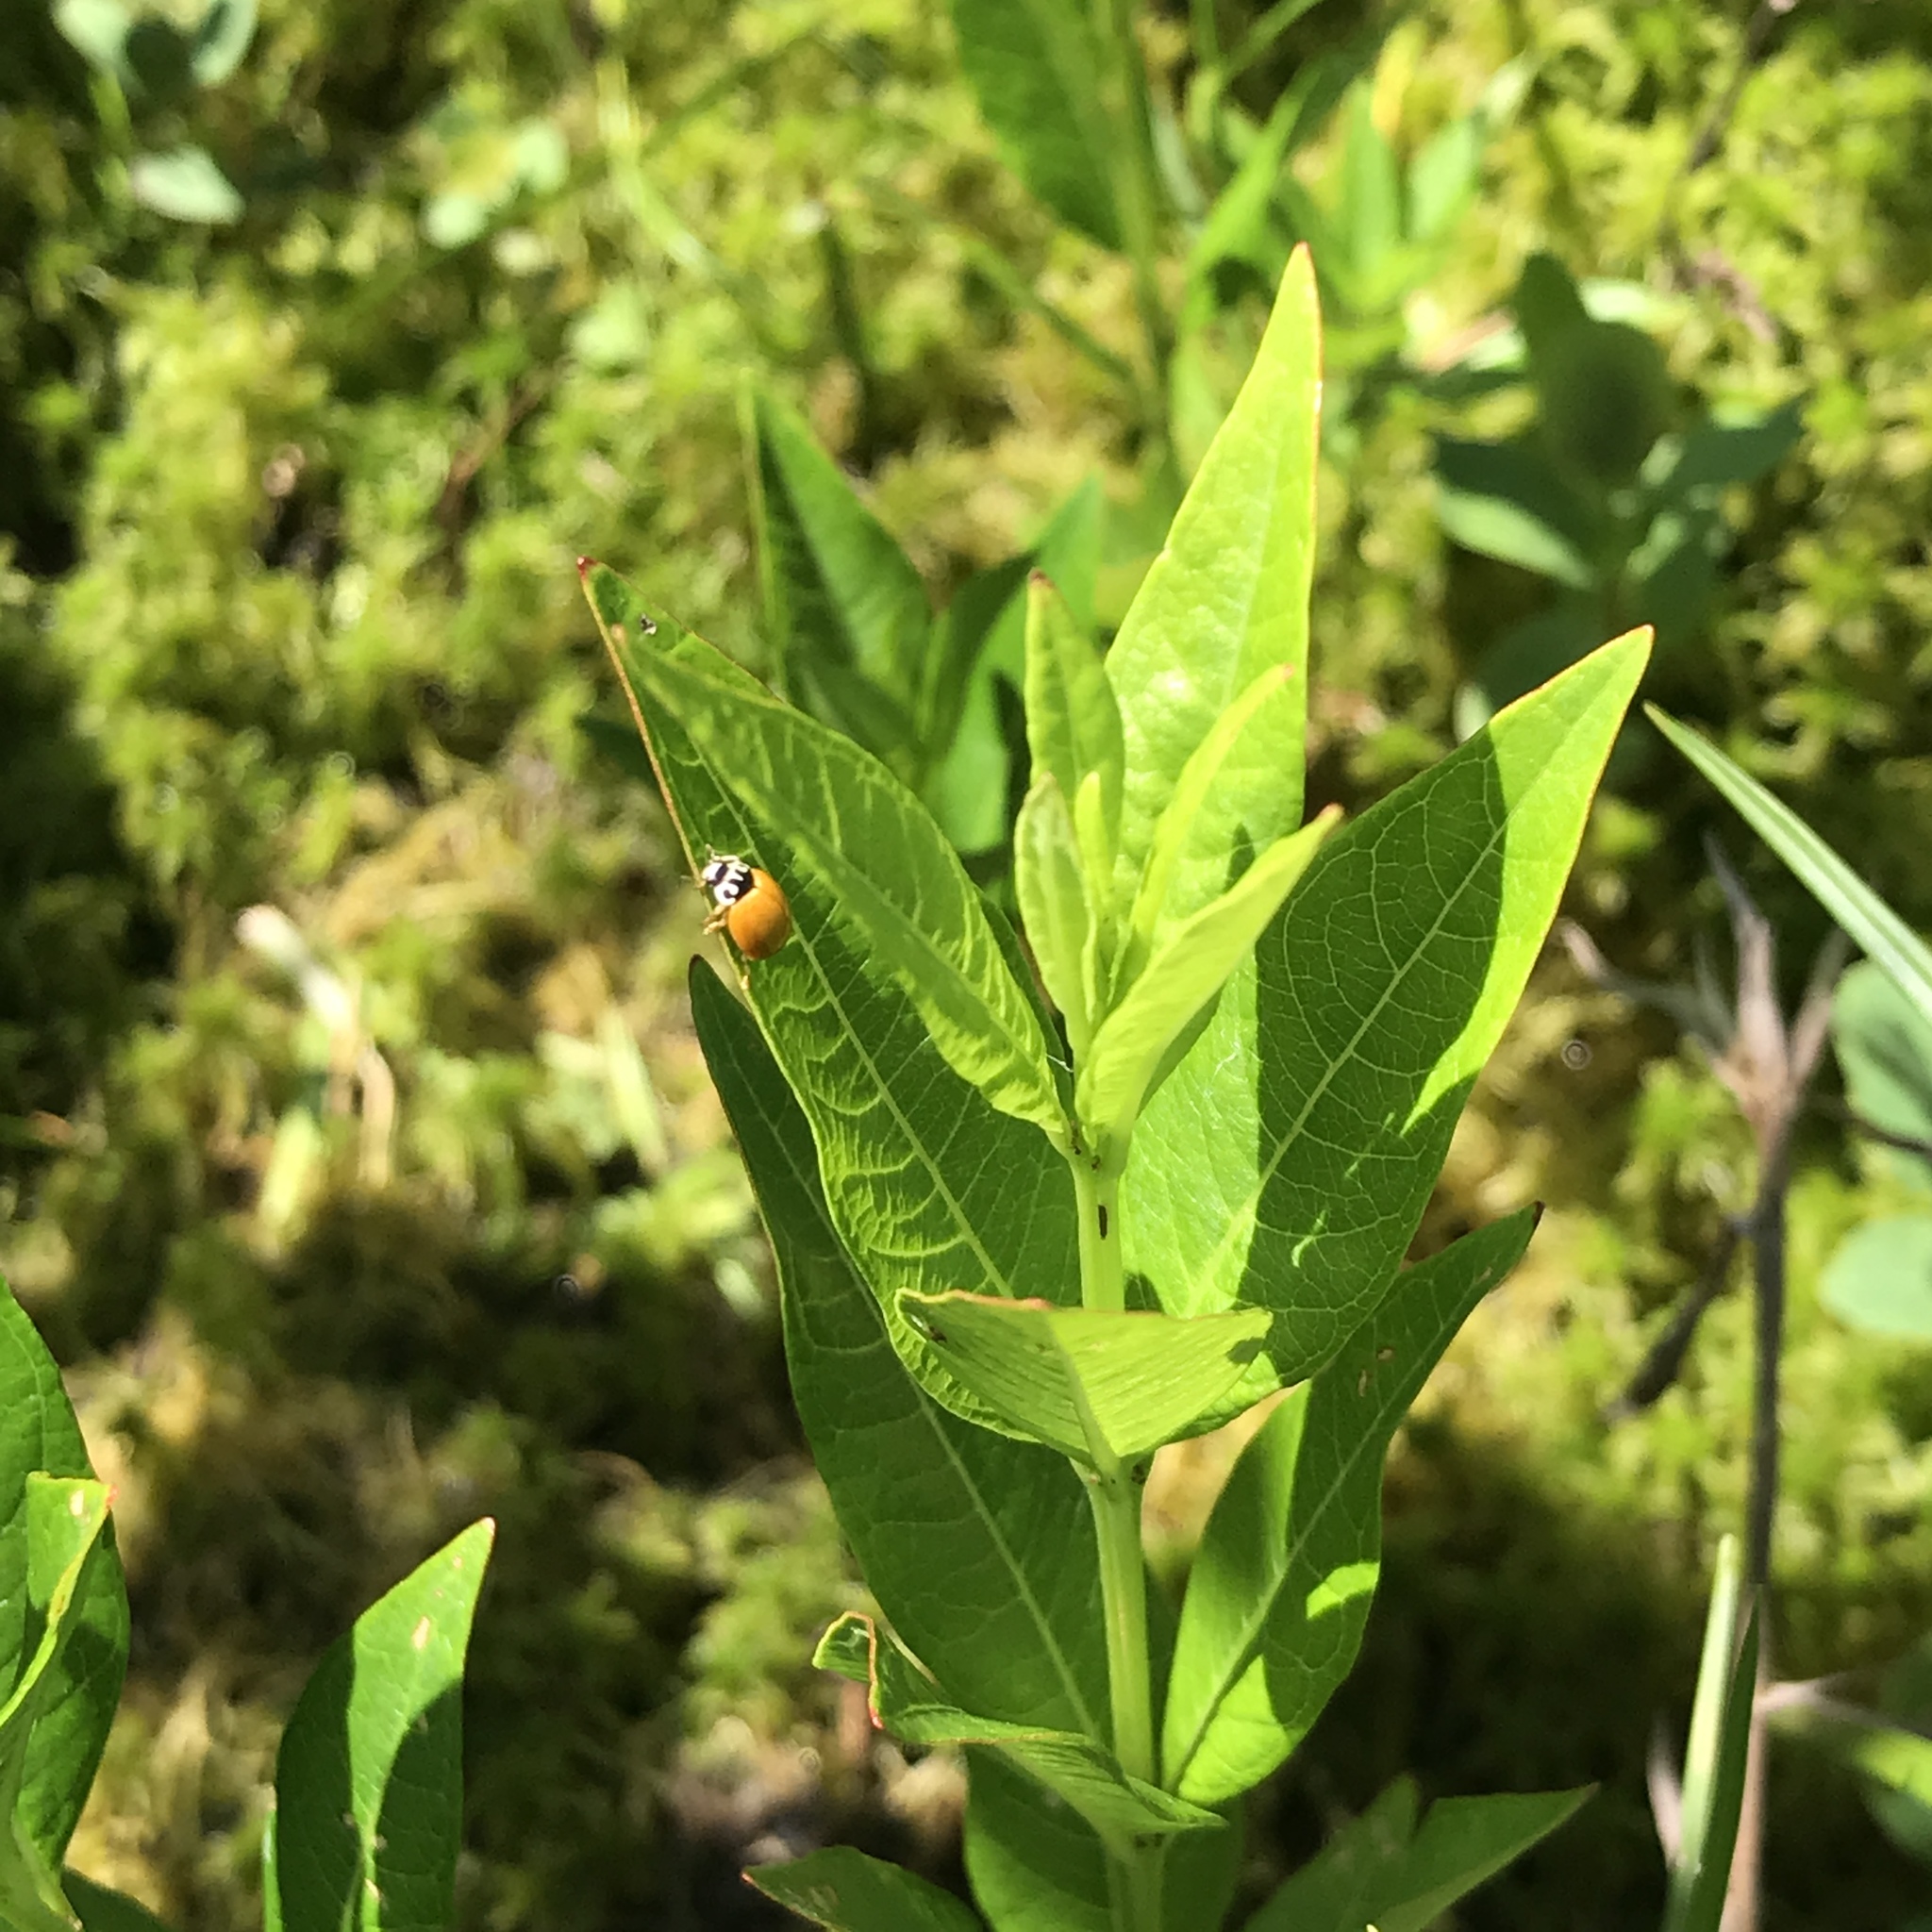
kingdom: Plantae
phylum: Tracheophyta
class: Magnoliopsida
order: Myrtales
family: Lythraceae
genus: Decodon
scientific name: Decodon verticillatus
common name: Hairy swamp loosestrife
